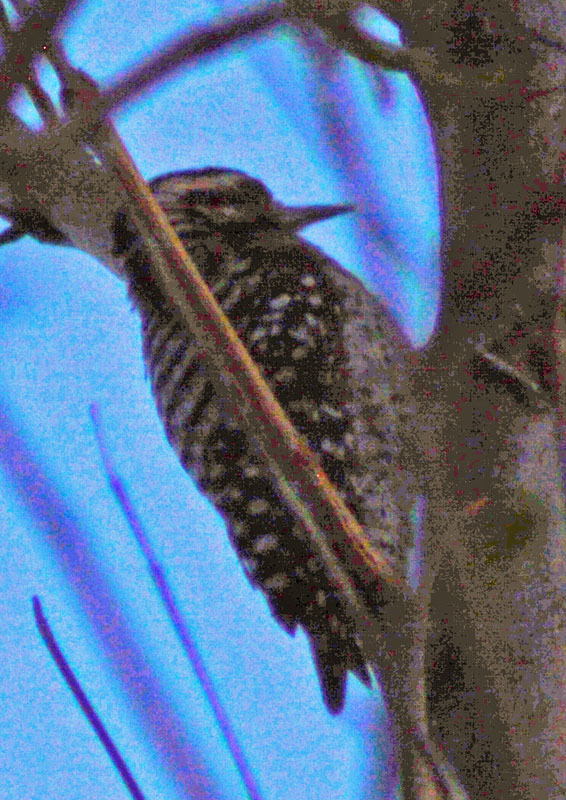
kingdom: Animalia
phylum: Chordata
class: Aves
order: Piciformes
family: Picidae
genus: Dryobates
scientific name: Dryobates scalaris
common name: Ladder-backed woodpecker
